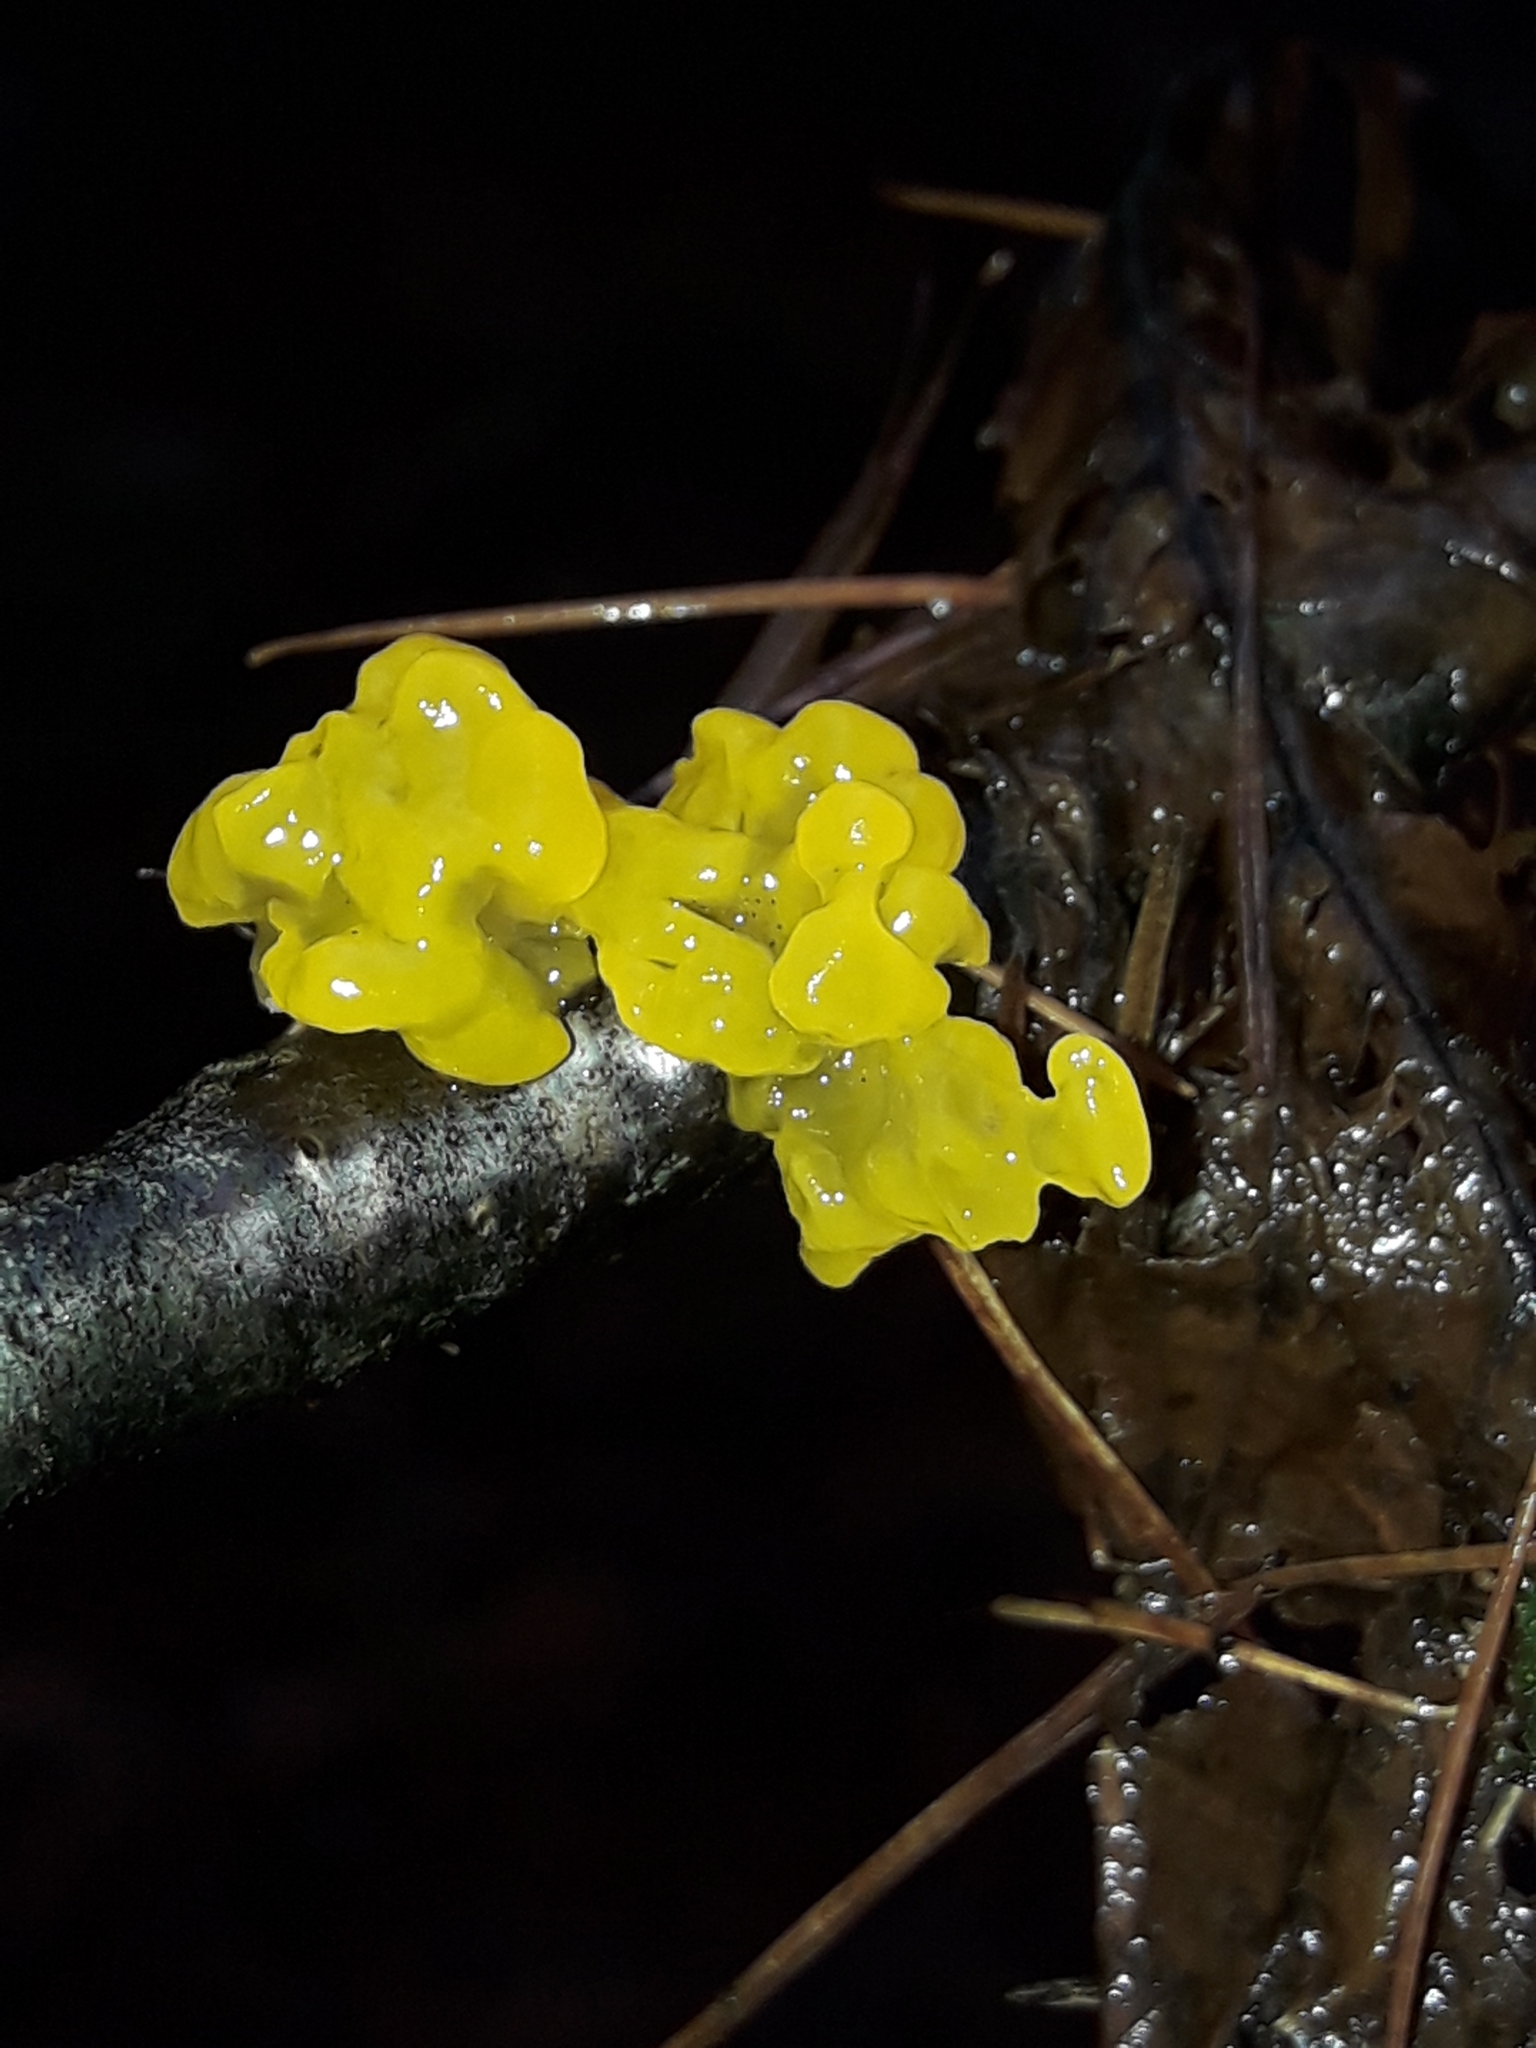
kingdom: Fungi
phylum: Basidiomycota
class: Tremellomycetes
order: Tremellales
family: Tremellaceae
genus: Tremella
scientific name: Tremella mesenterica
